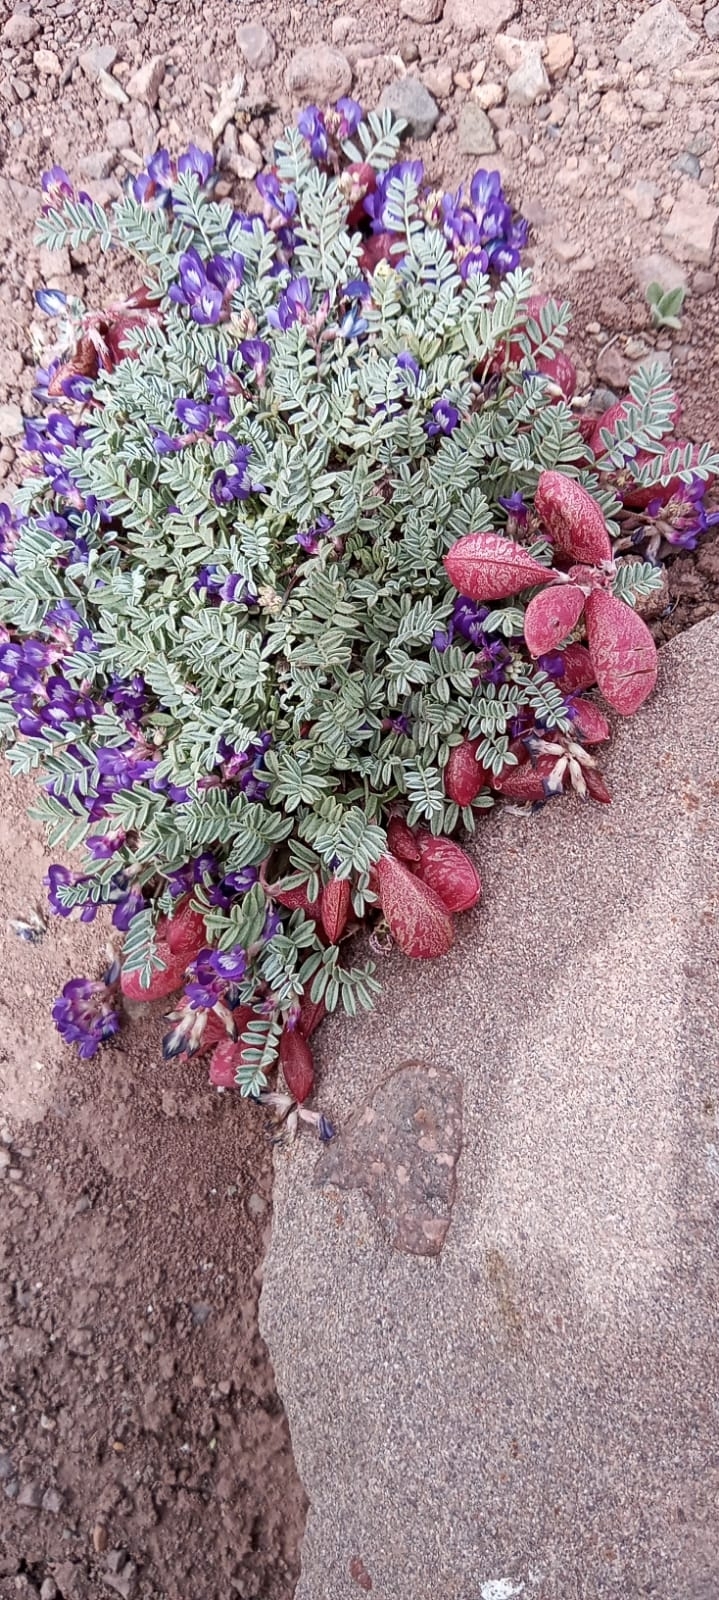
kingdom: Plantae
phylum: Tracheophyta
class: Magnoliopsida
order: Fabales
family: Fabaceae
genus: Astragalus
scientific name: Astragalus arnottianus
